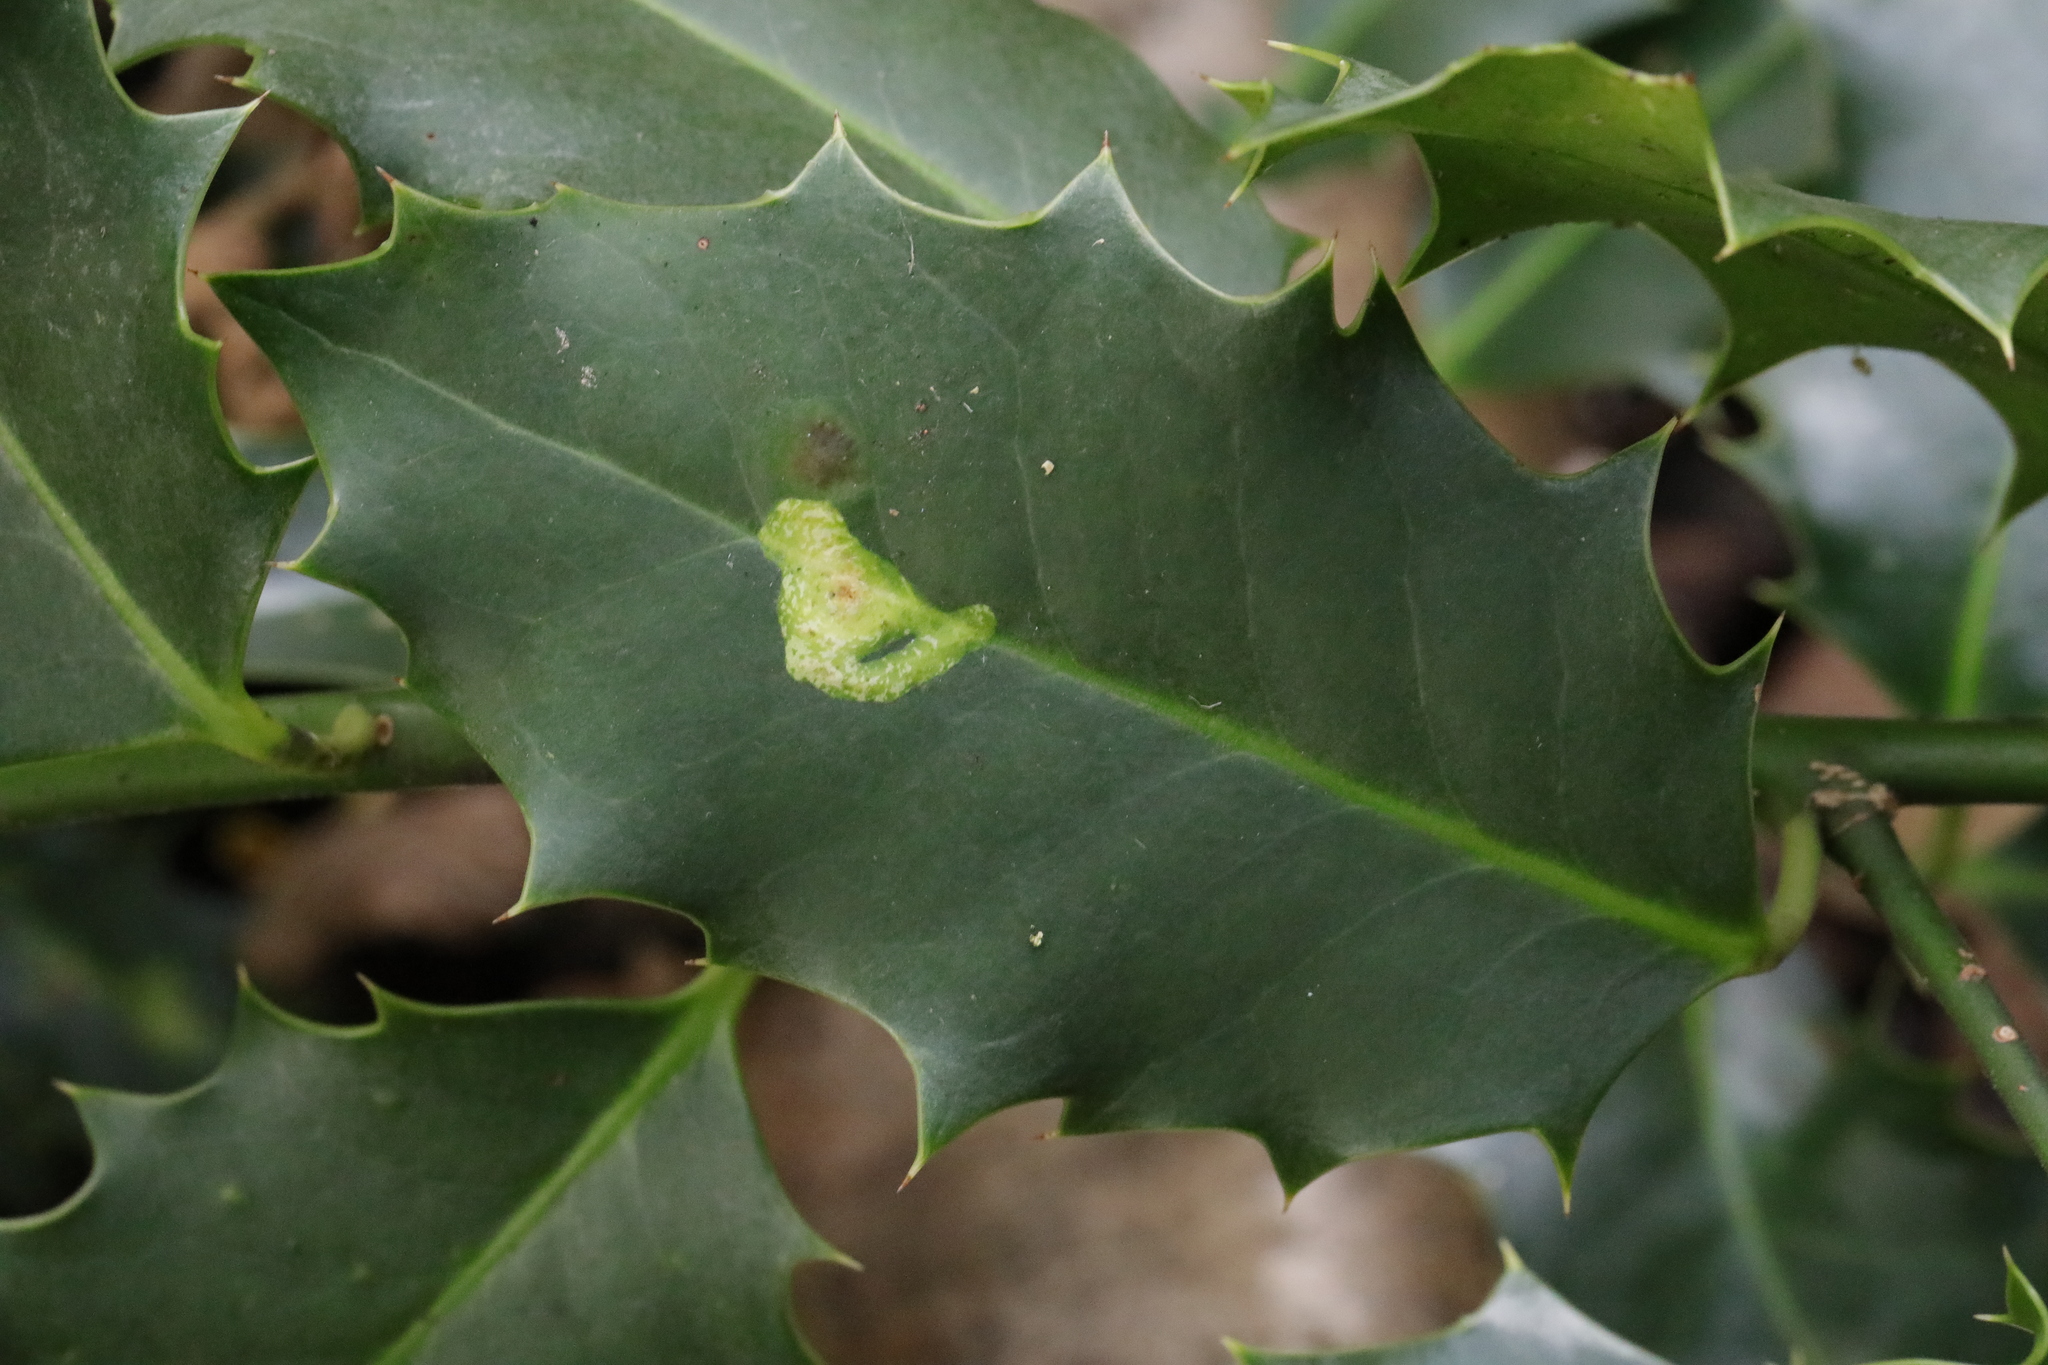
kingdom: Animalia
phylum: Arthropoda
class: Insecta
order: Diptera
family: Agromyzidae
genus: Phytomyza
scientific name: Phytomyza ilicis
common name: Holly leafminer
